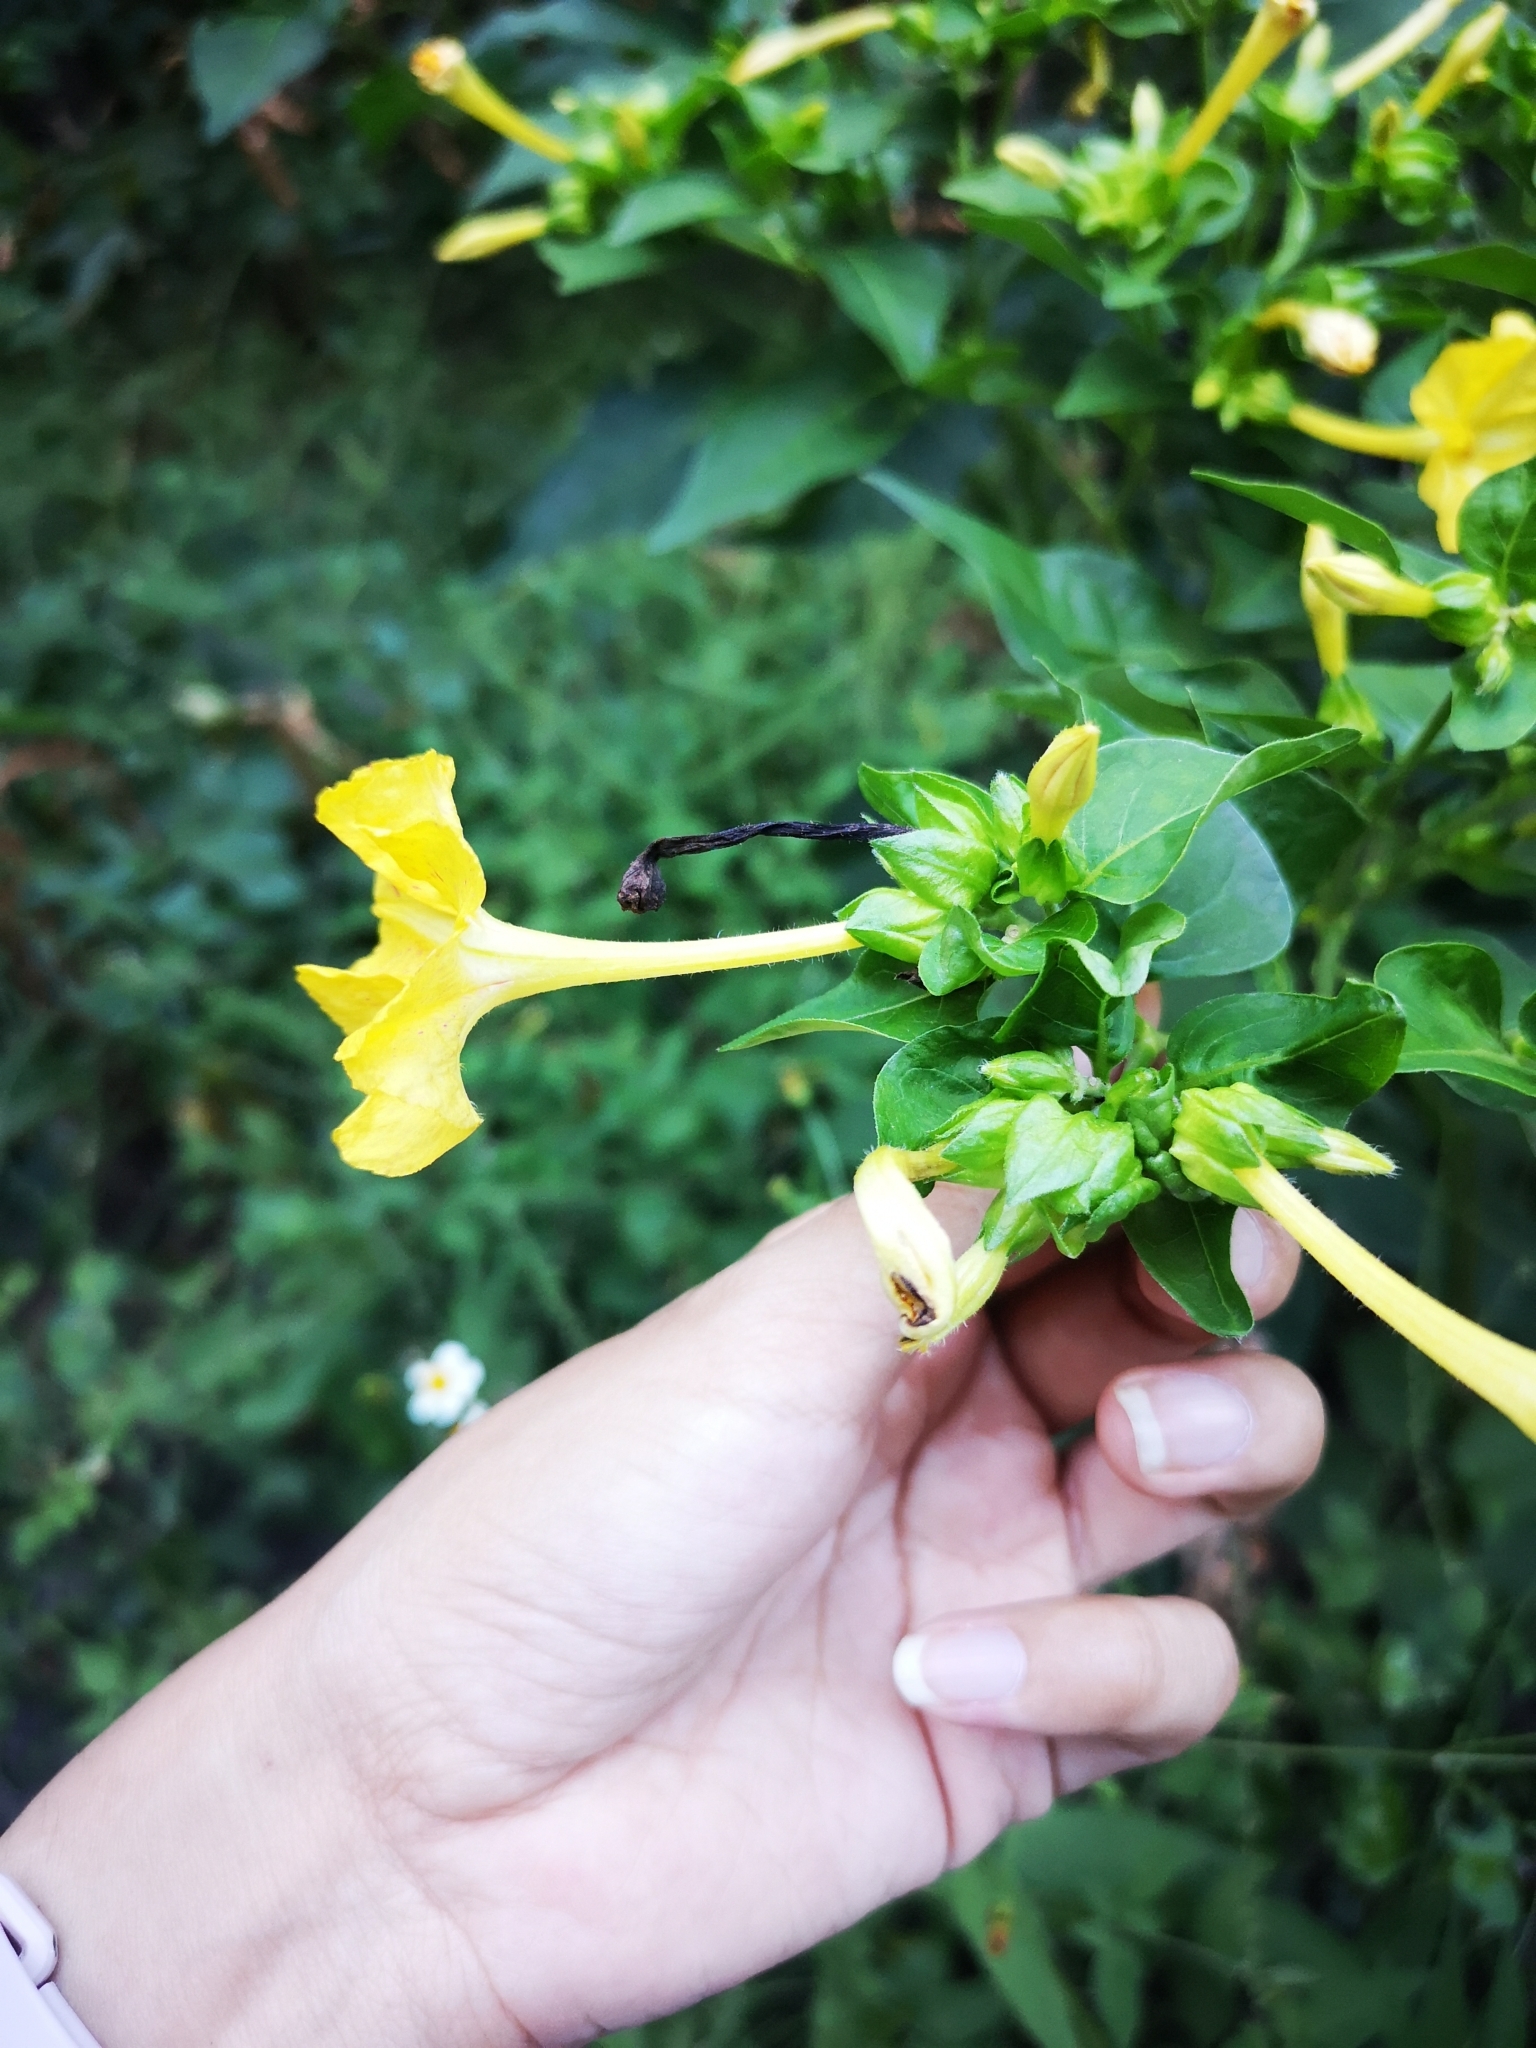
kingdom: Plantae
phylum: Tracheophyta
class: Magnoliopsida
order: Caryophyllales
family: Nyctaginaceae
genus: Mirabilis
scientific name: Mirabilis jalapa
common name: Marvel-of-peru
